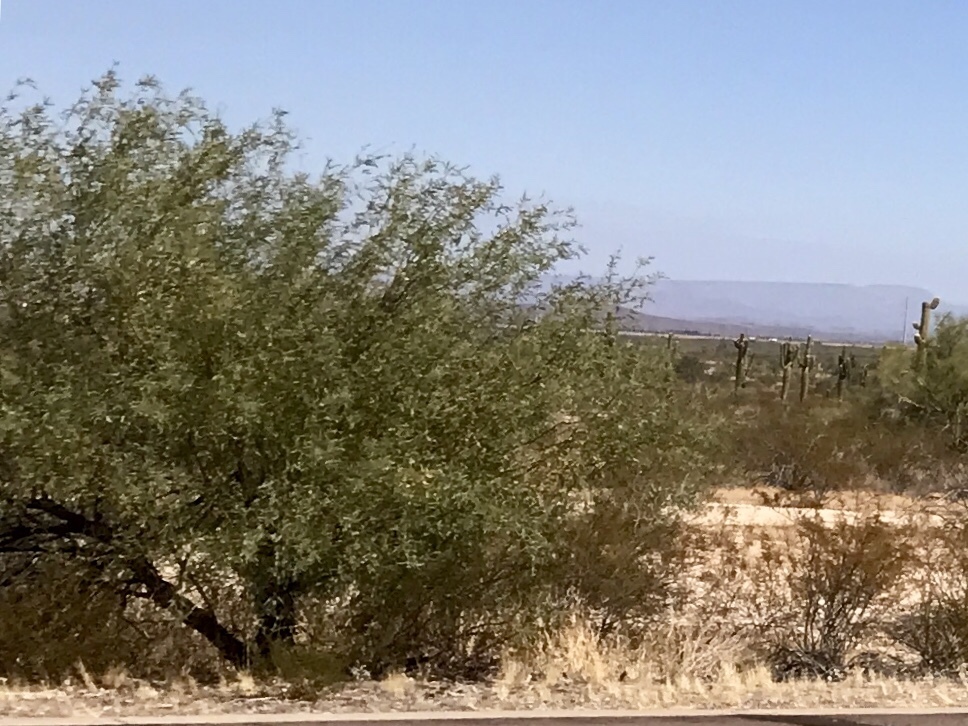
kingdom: Plantae
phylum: Tracheophyta
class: Magnoliopsida
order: Fabales
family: Fabaceae
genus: Prosopis
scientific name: Prosopis velutina
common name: Velvet mesquite
